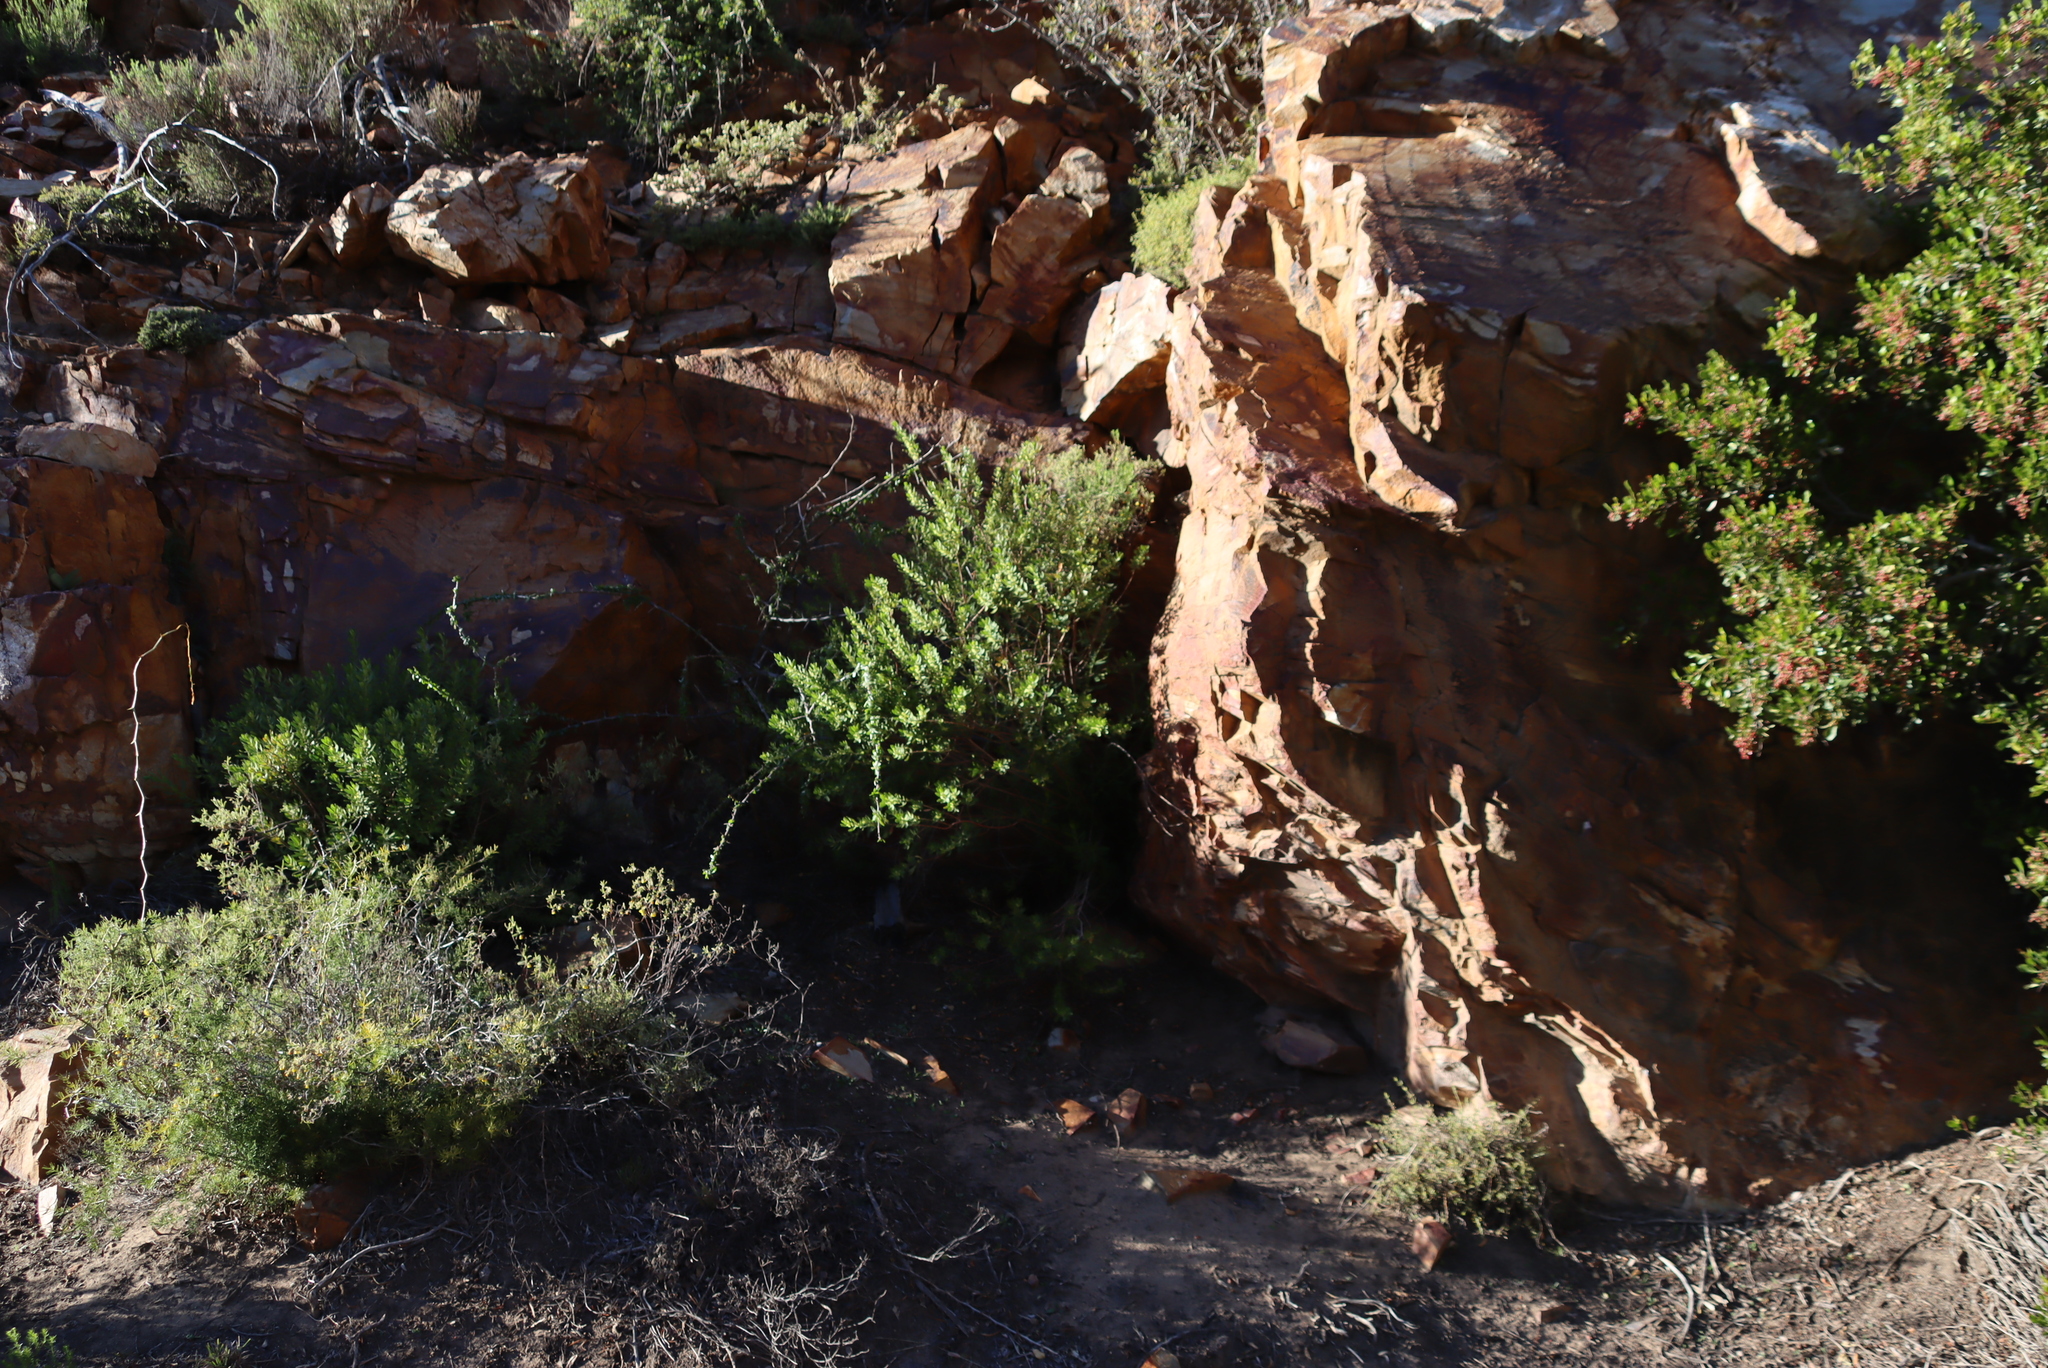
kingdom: Plantae
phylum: Tracheophyta
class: Magnoliopsida
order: Malpighiales
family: Peraceae
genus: Clutia
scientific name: Clutia daphnoides
